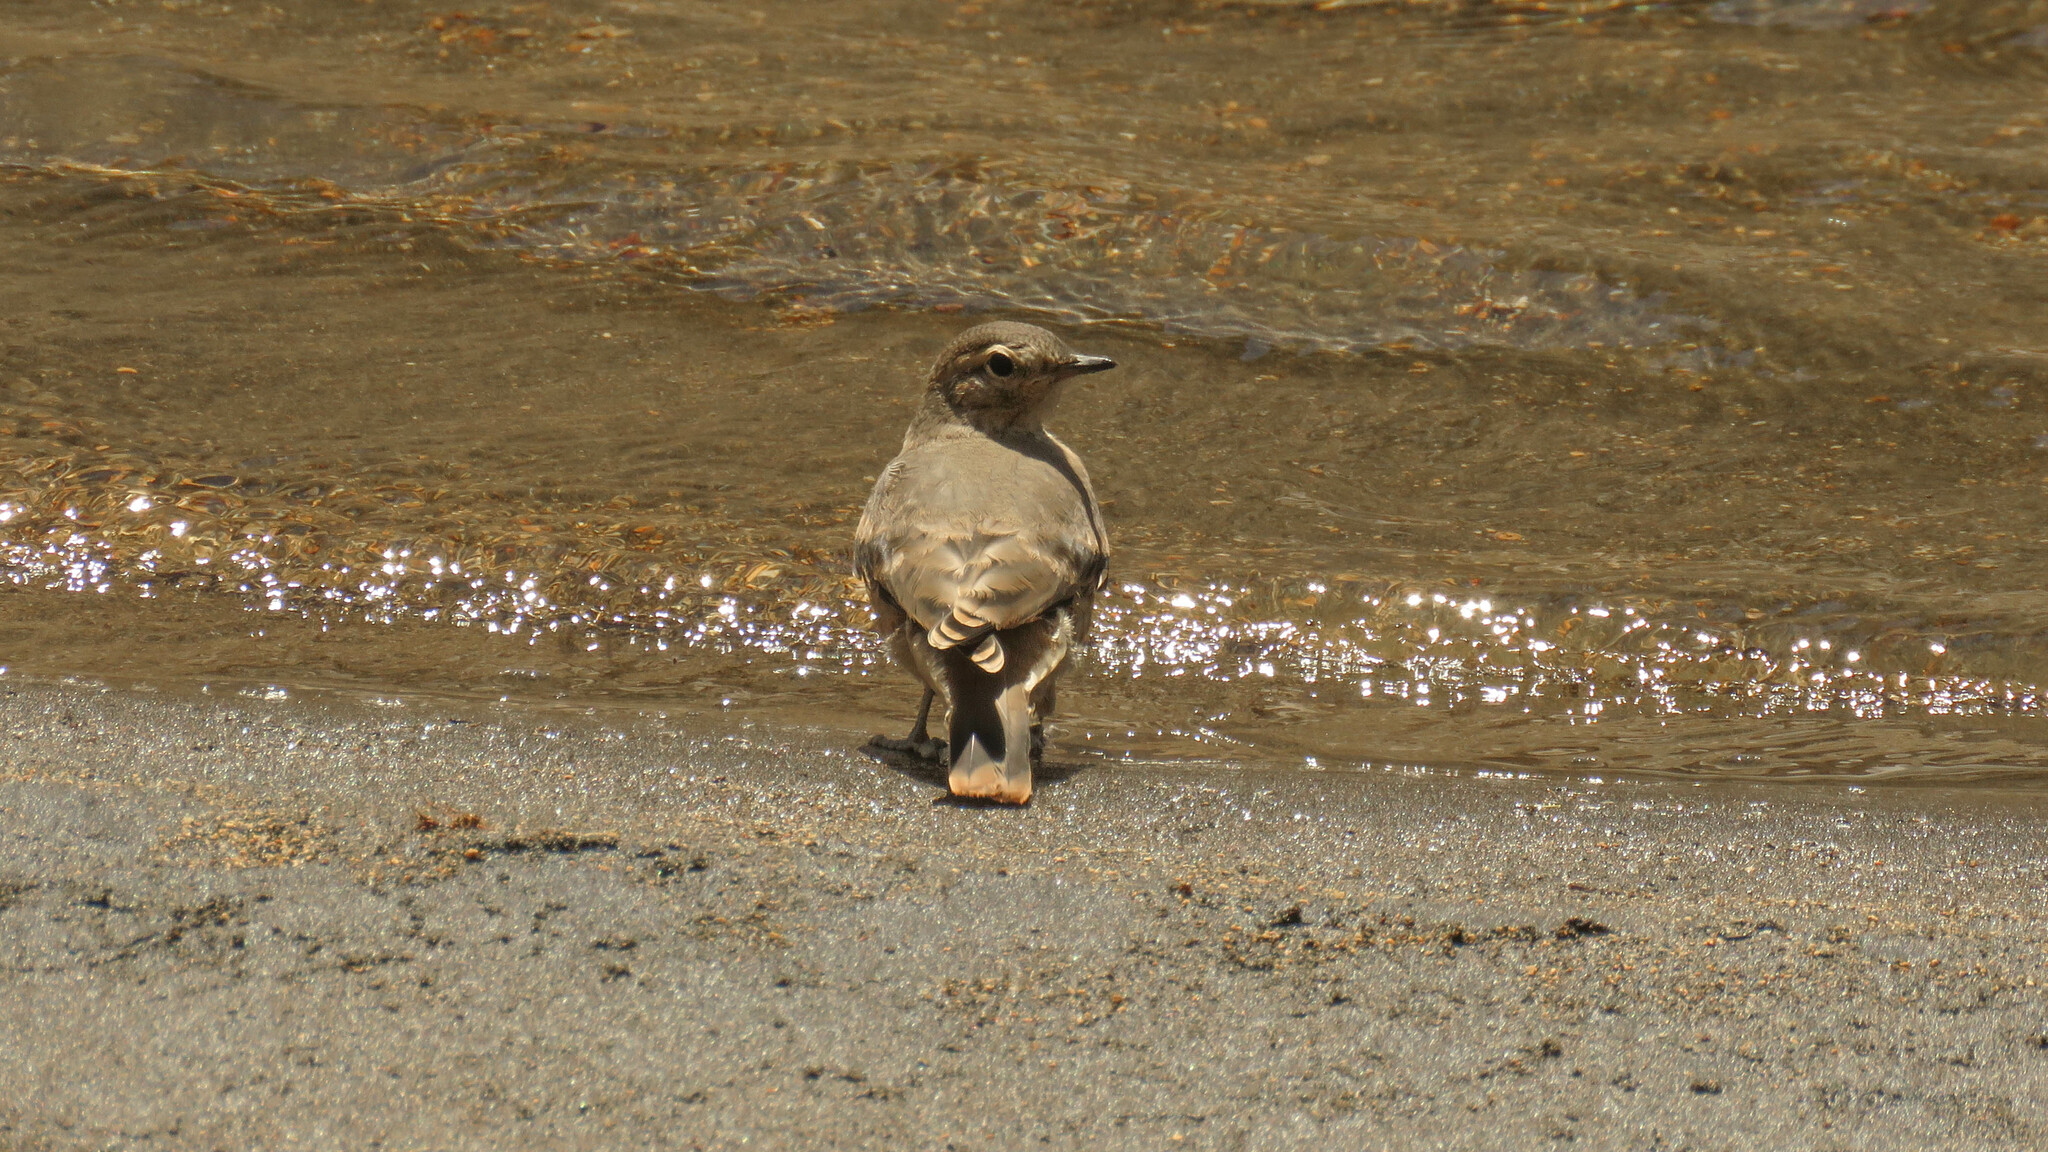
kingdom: Animalia
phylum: Chordata
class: Aves
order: Passeriformes
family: Furnariidae
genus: Geositta
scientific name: Geositta rufipennis
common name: Rufous-banded miner
